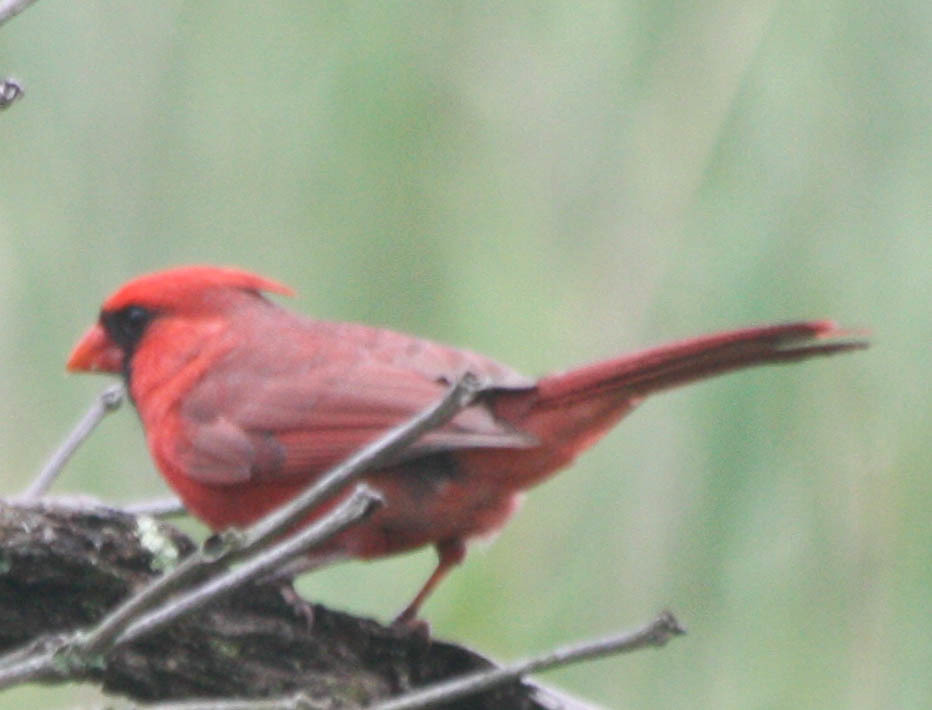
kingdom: Animalia
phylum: Chordata
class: Aves
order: Passeriformes
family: Cardinalidae
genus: Cardinalis
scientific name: Cardinalis cardinalis
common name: Northern cardinal
